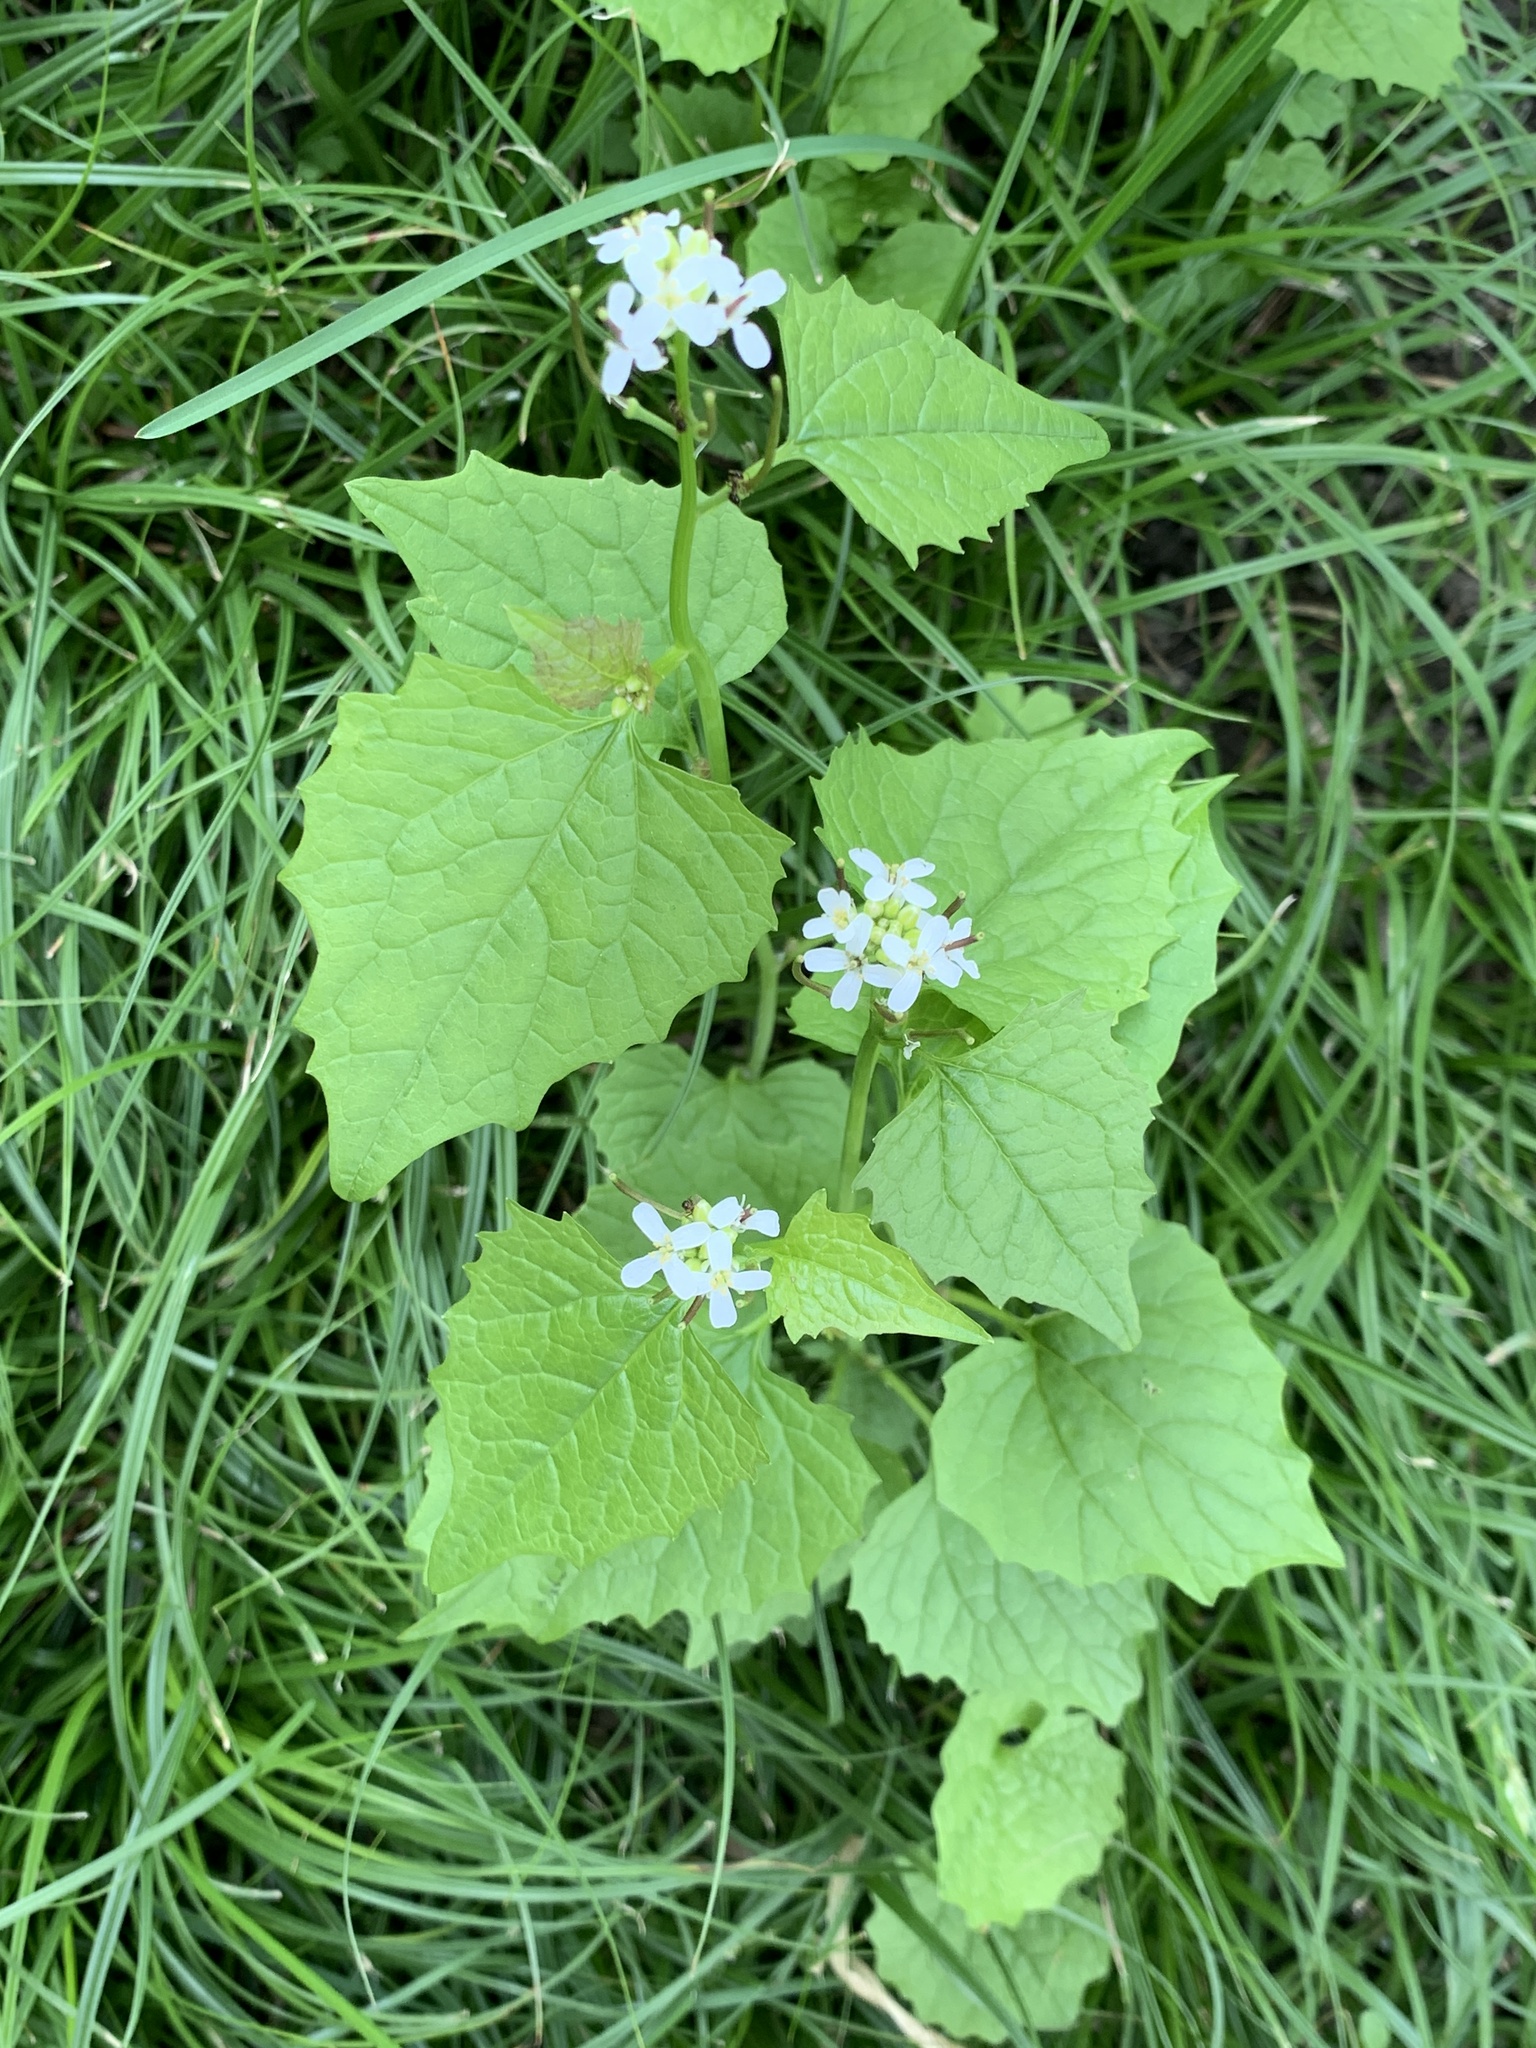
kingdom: Plantae
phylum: Tracheophyta
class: Magnoliopsida
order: Brassicales
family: Brassicaceae
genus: Alliaria
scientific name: Alliaria petiolata
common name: Garlic mustard
